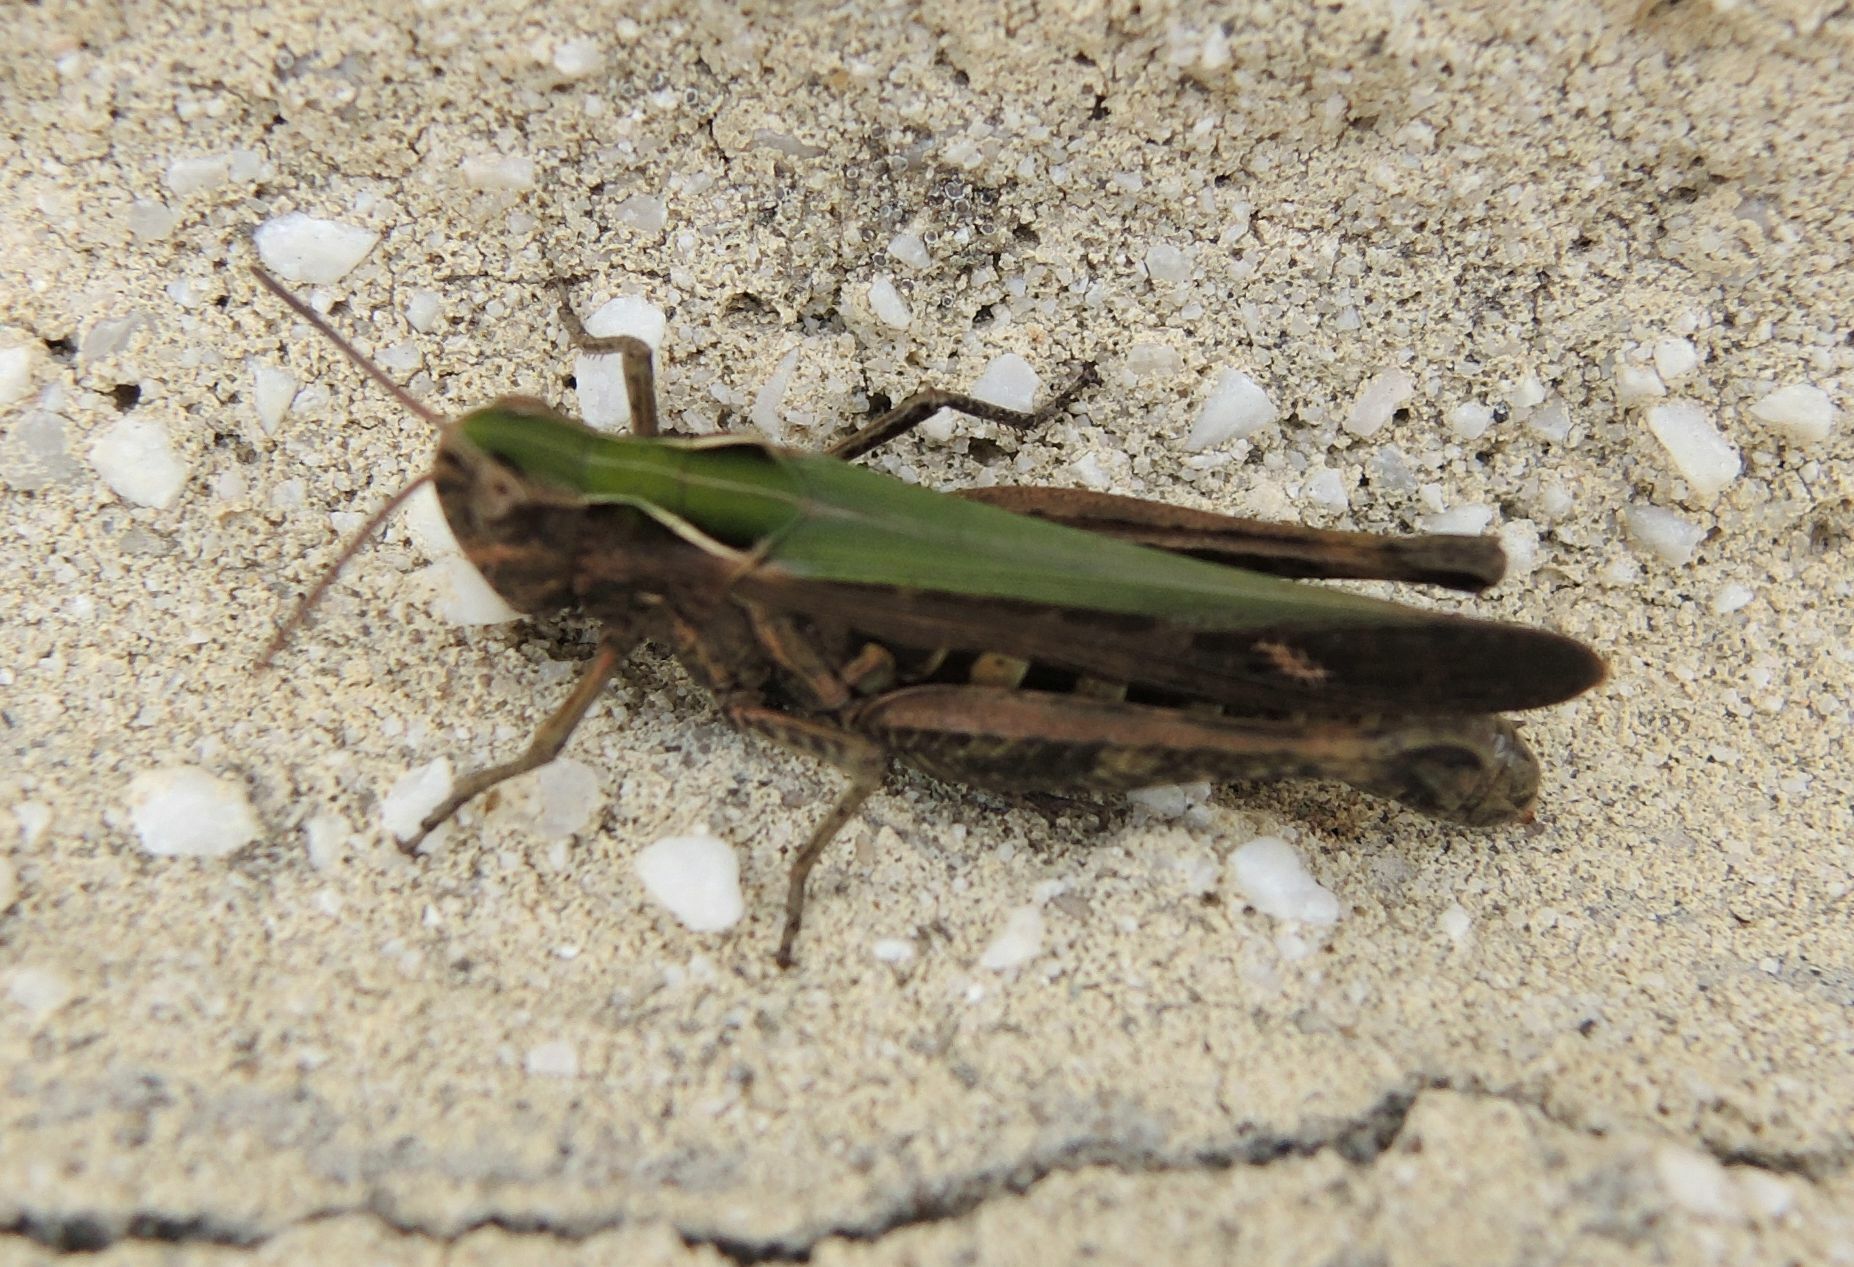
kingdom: Animalia
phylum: Arthropoda
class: Insecta
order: Orthoptera
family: Acrididae
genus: Omocestus
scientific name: Omocestus rufipes
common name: Woodland grasshopper
